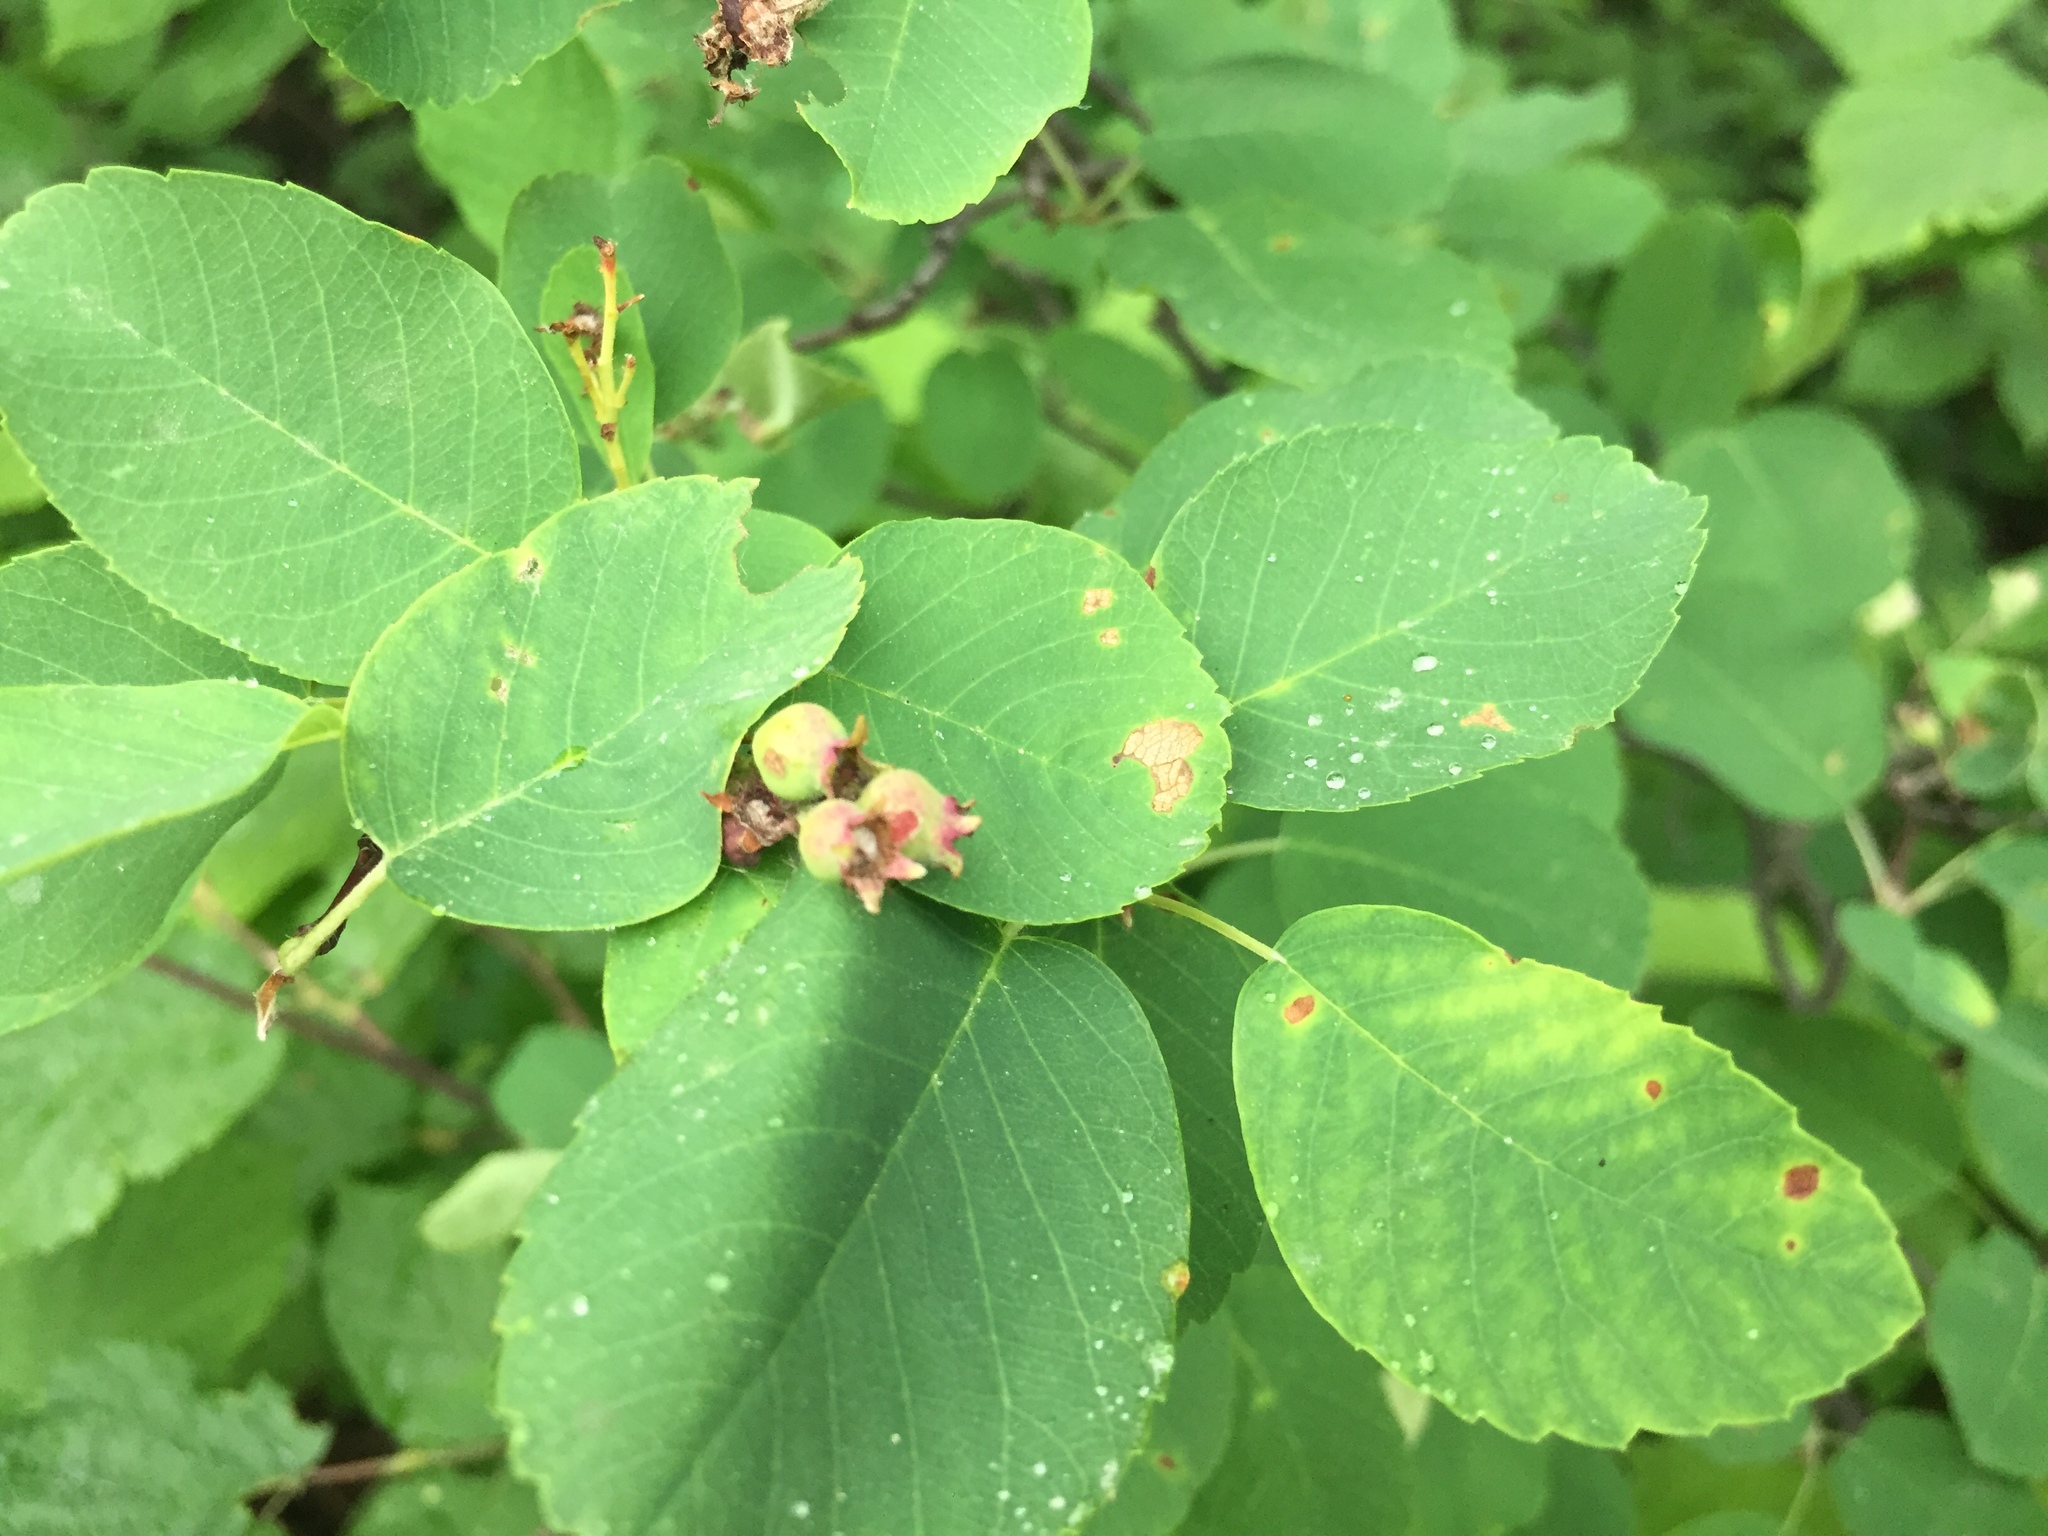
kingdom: Plantae
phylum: Tracheophyta
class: Magnoliopsida
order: Rosales
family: Rosaceae
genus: Amelanchier
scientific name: Amelanchier alnifolia
